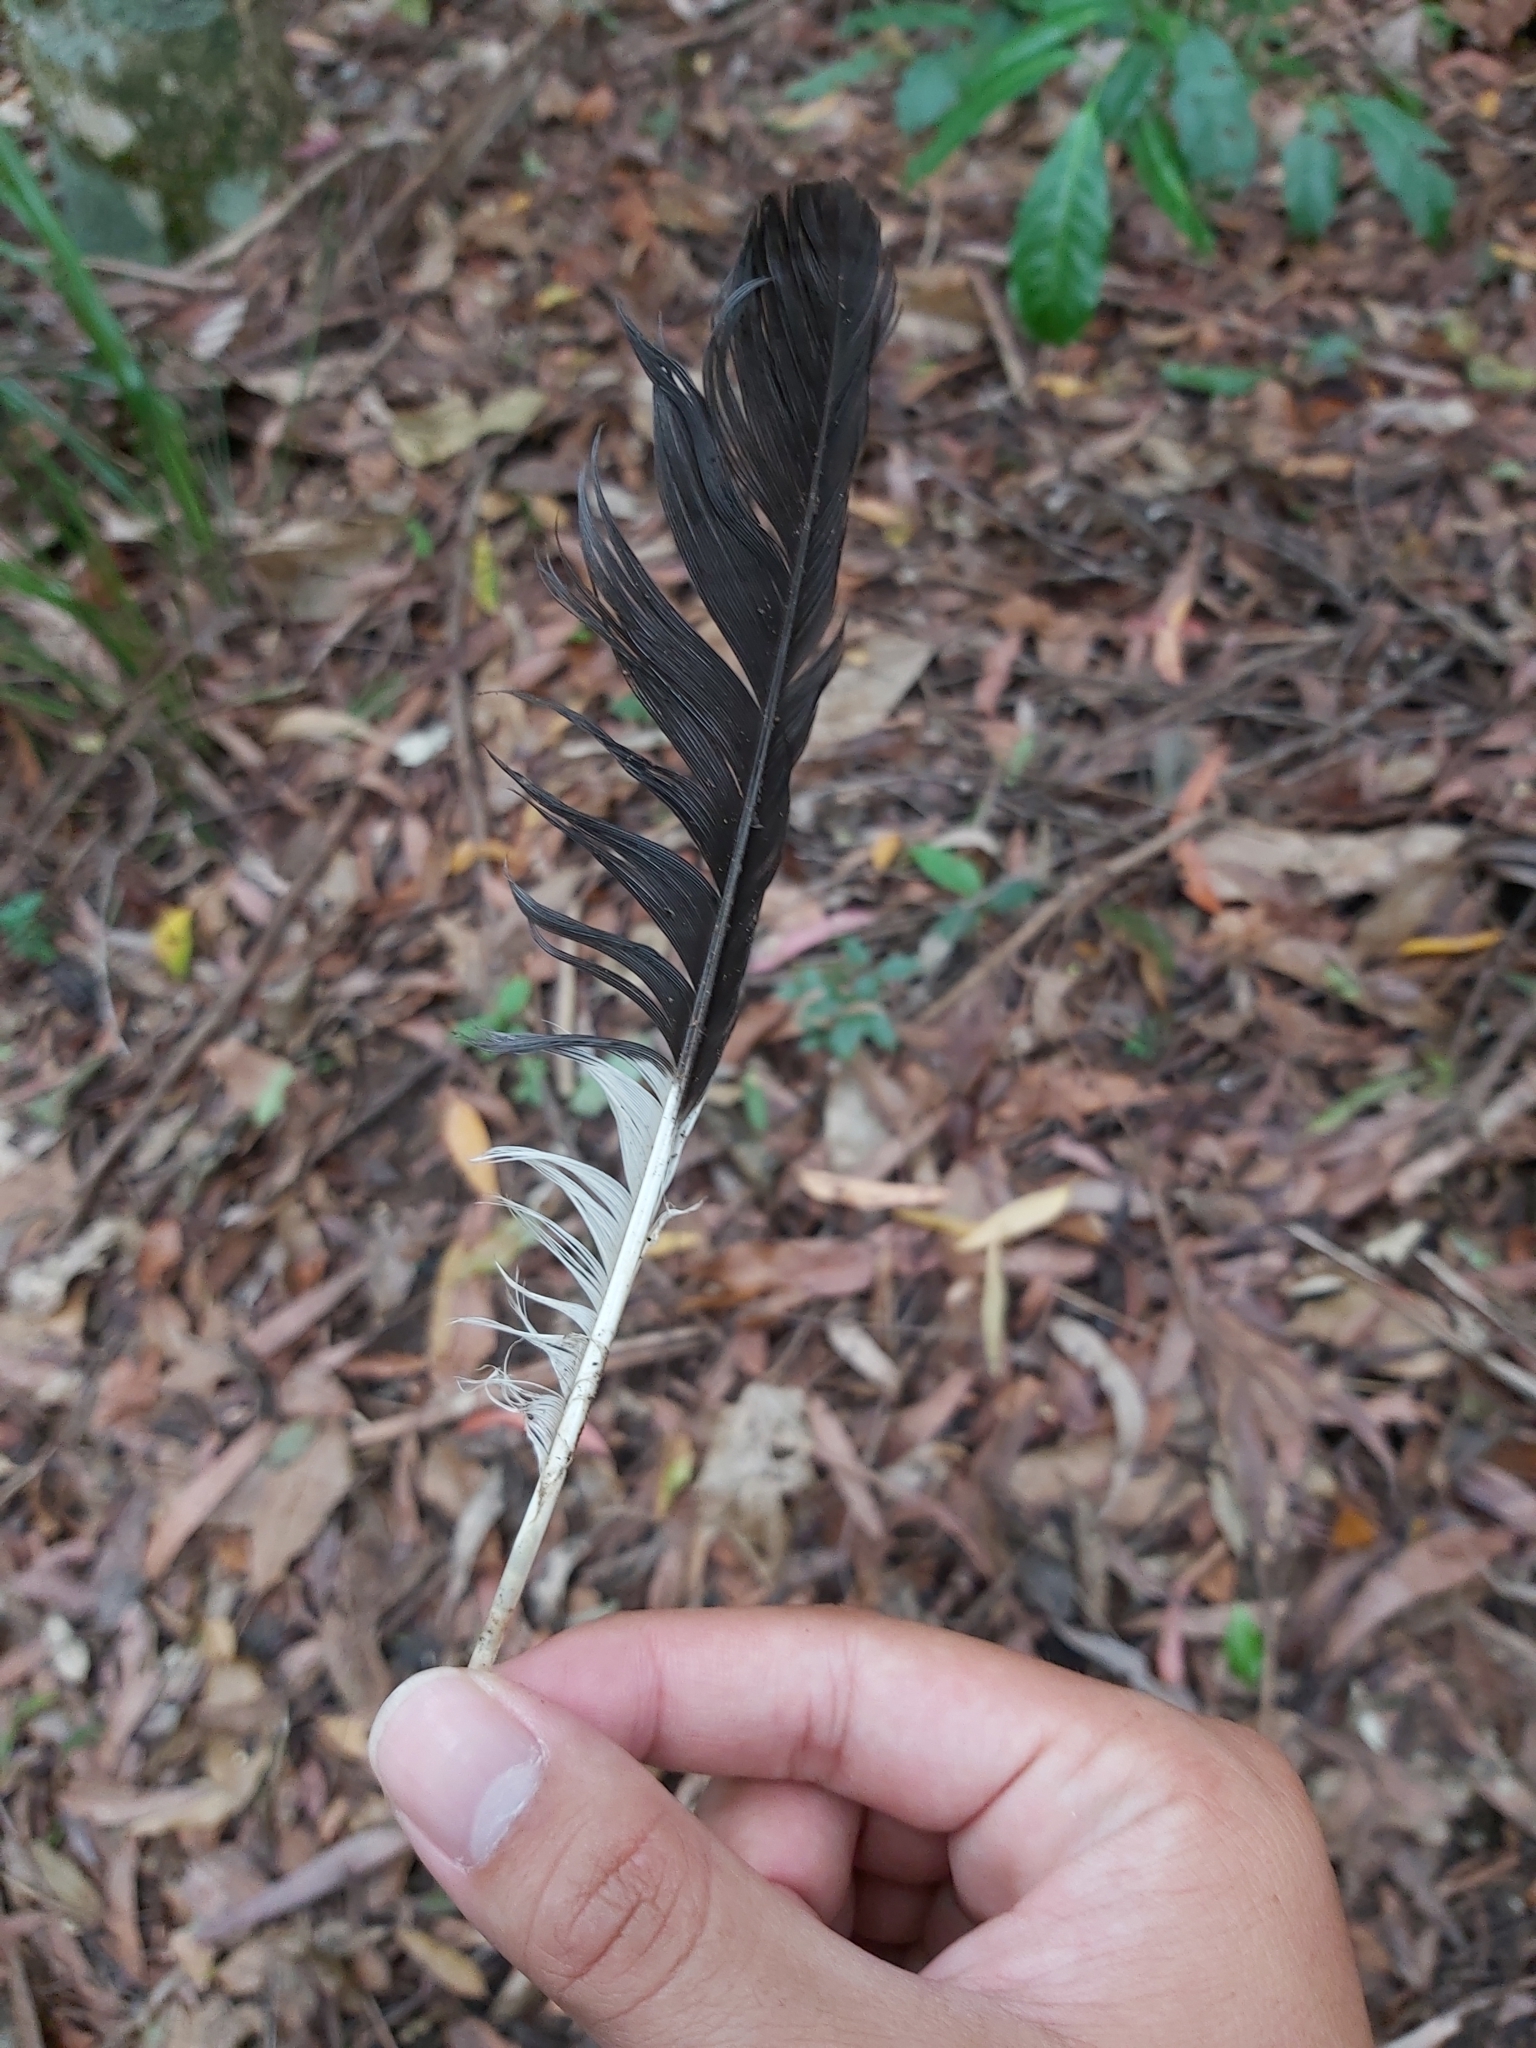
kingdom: Animalia
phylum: Chordata
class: Aves
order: Passeriformes
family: Cracticidae
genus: Strepera
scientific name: Strepera graculina
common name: Pied currawong
